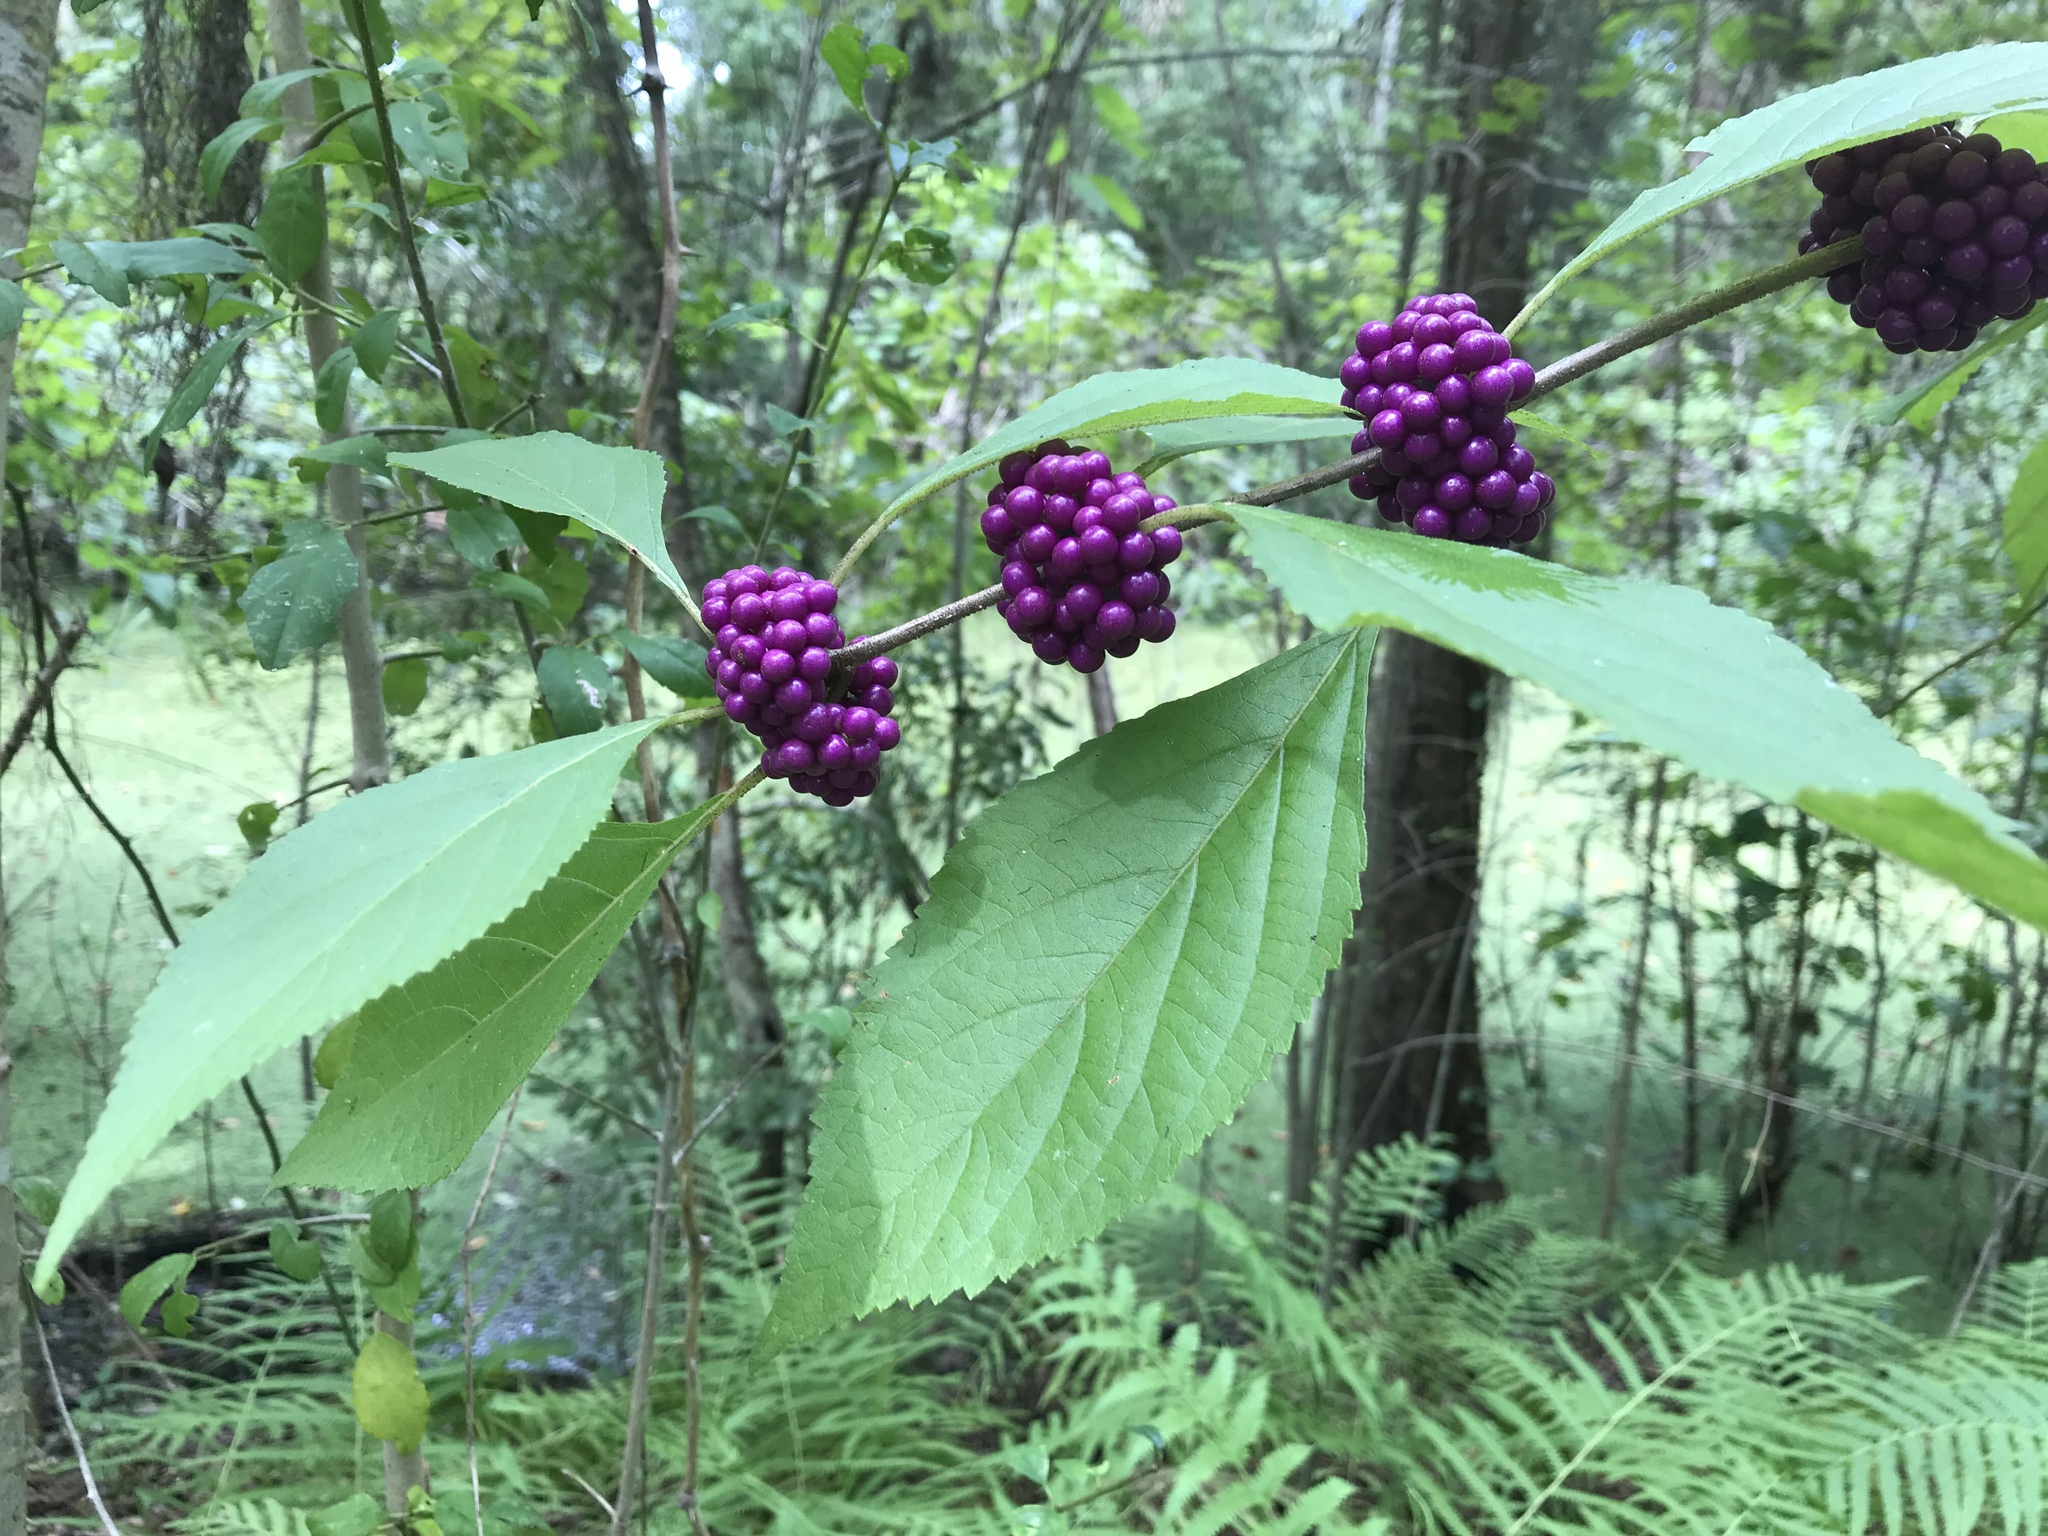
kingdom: Plantae
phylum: Tracheophyta
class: Magnoliopsida
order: Lamiales
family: Lamiaceae
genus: Callicarpa
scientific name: Callicarpa americana
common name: American beautyberry
